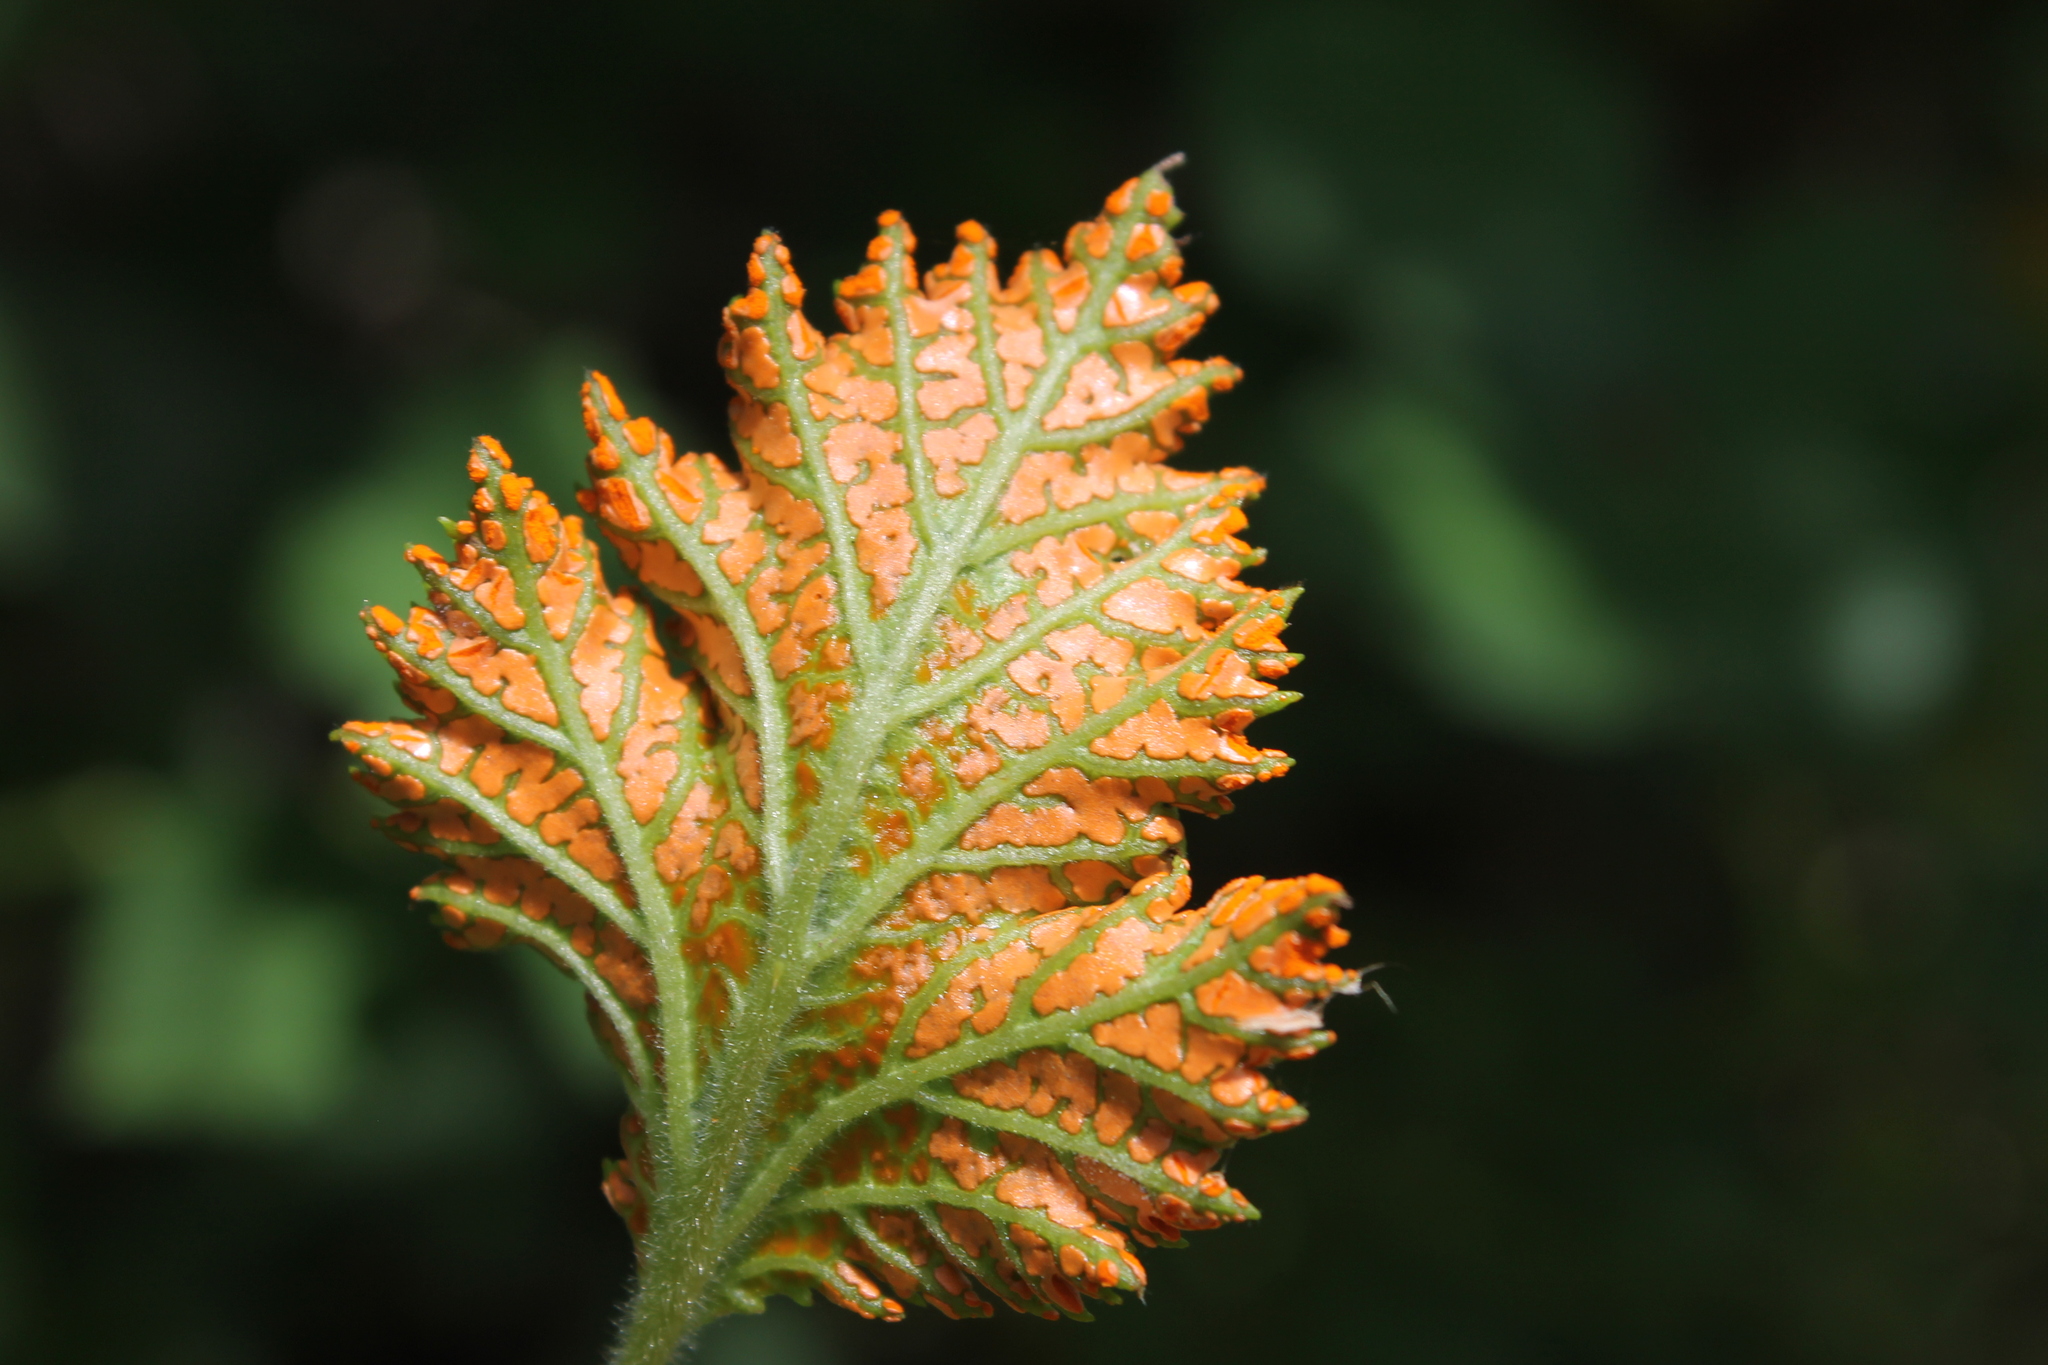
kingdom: Fungi
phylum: Basidiomycota
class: Pucciniomycetes
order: Pucciniales
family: Phragmidiaceae
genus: Arthuriomyces
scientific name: Arthuriomyces peckianus
